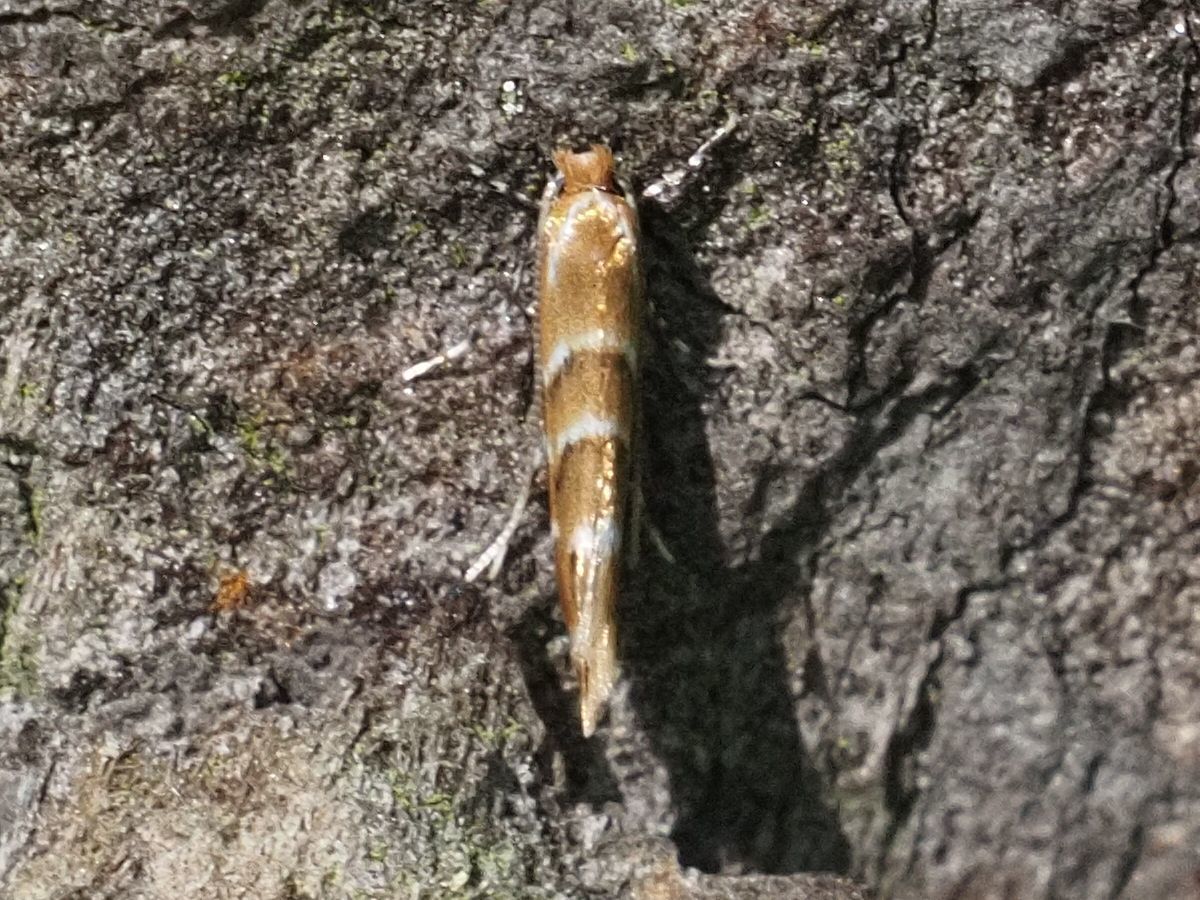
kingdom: Animalia
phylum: Arthropoda
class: Insecta
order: Lepidoptera
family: Gracillariidae
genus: Cameraria
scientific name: Cameraria ohridella
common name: Horse-chestnut leaf-miner
